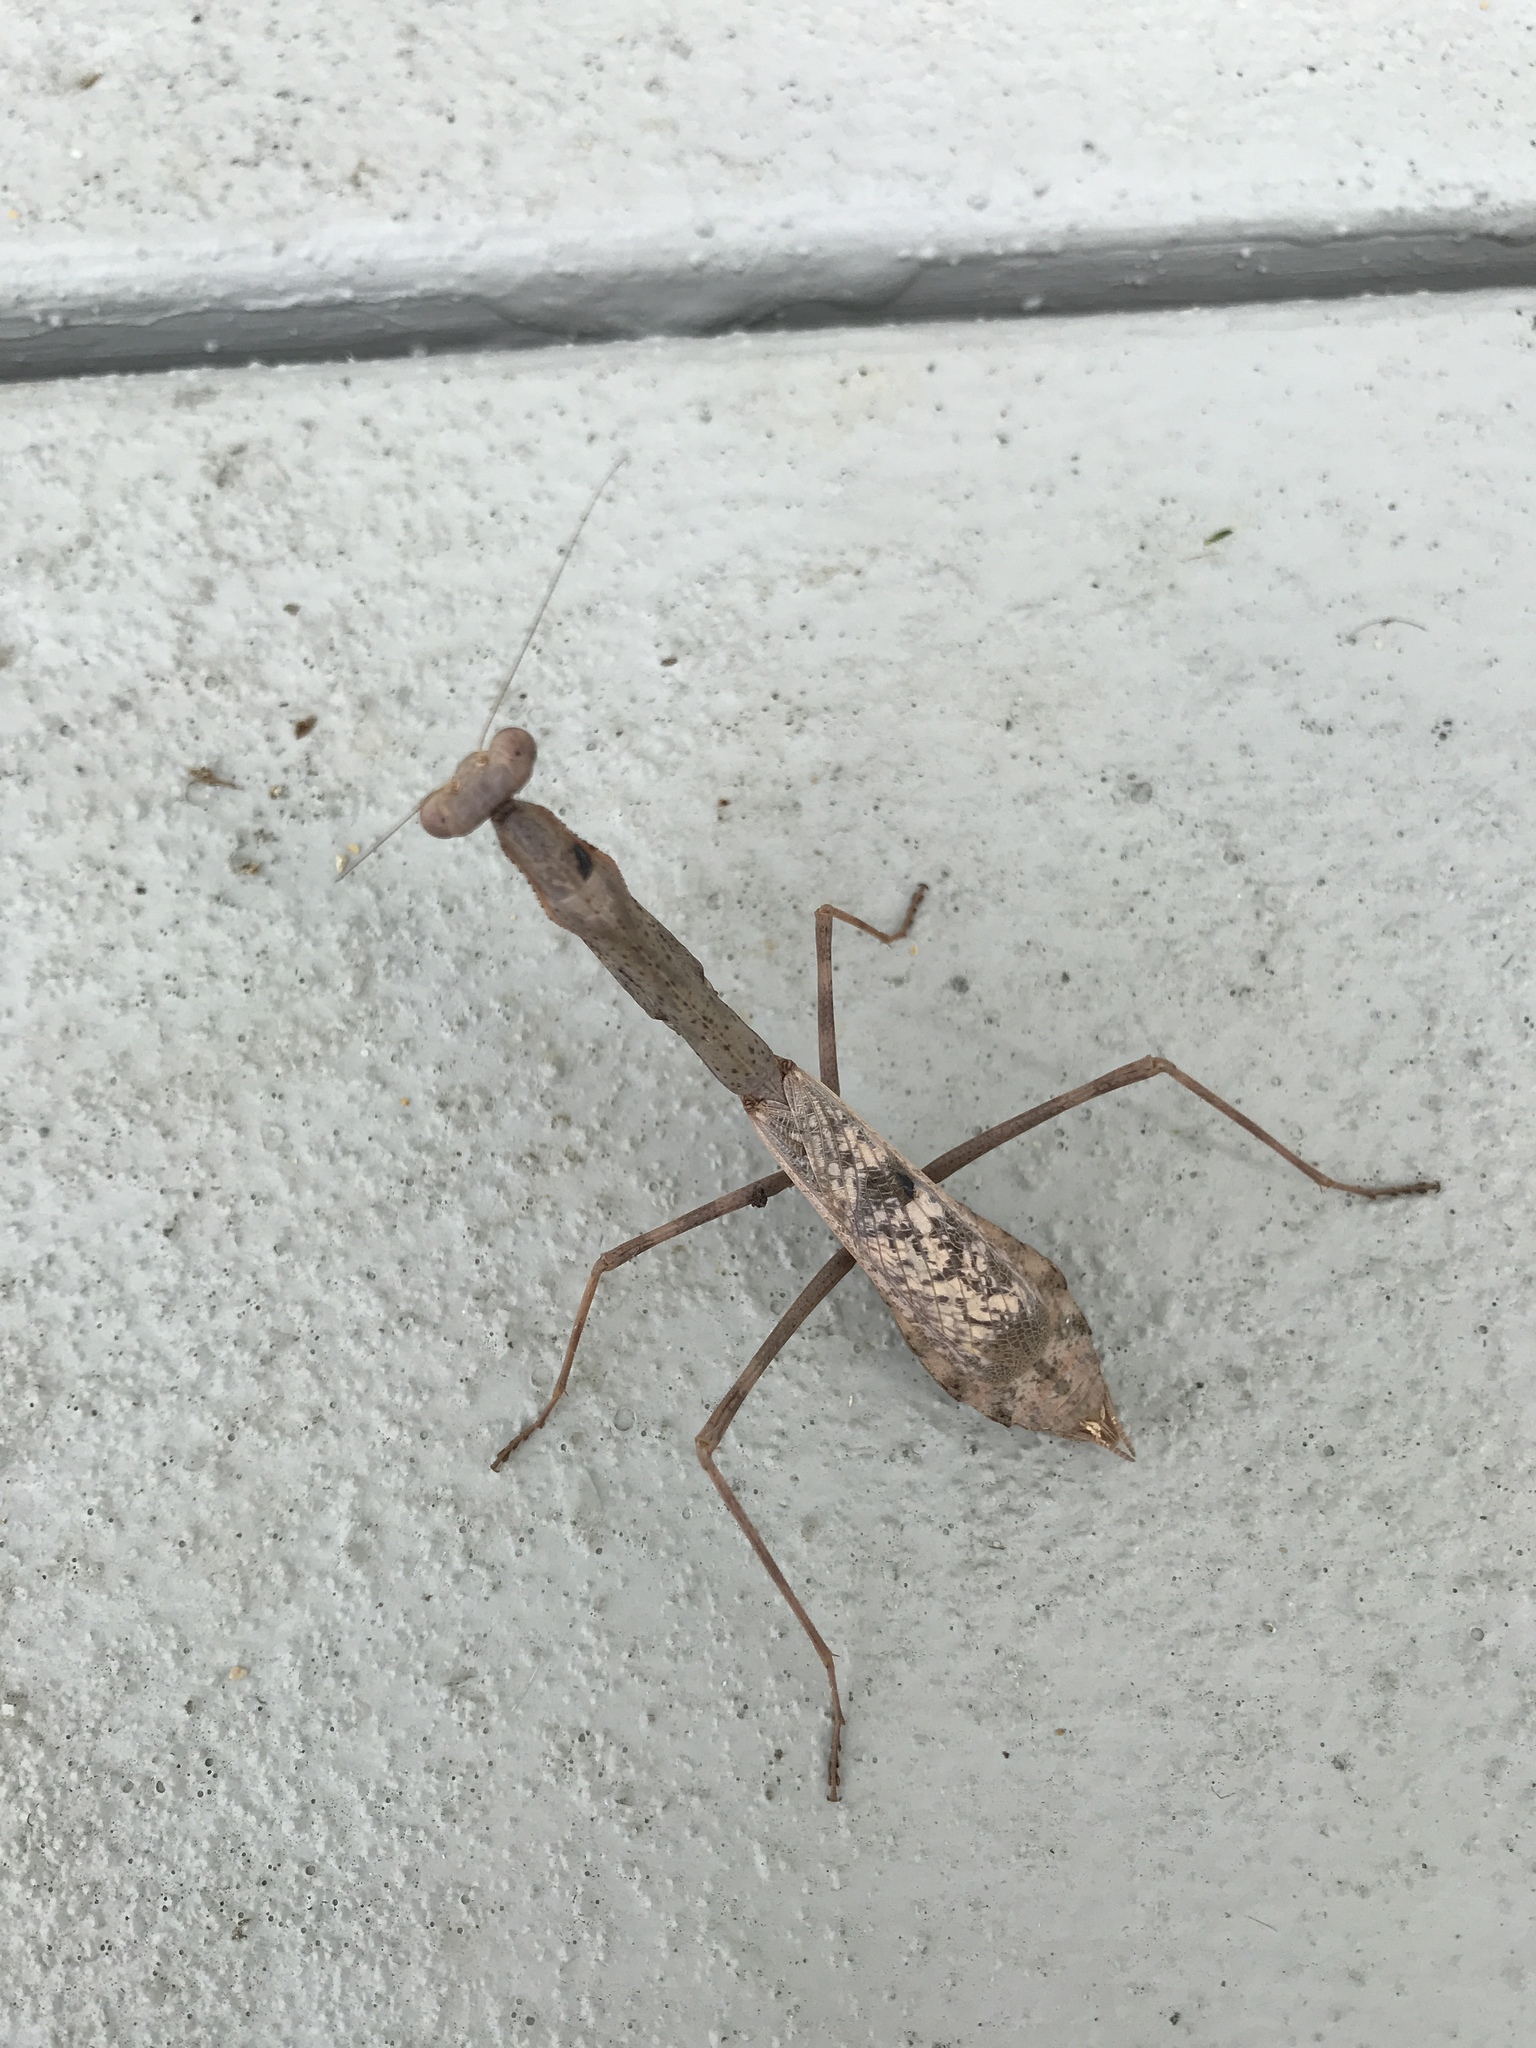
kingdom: Animalia
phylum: Arthropoda
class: Insecta
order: Mantodea
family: Mantidae
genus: Stagmomantis
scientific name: Stagmomantis carolina
